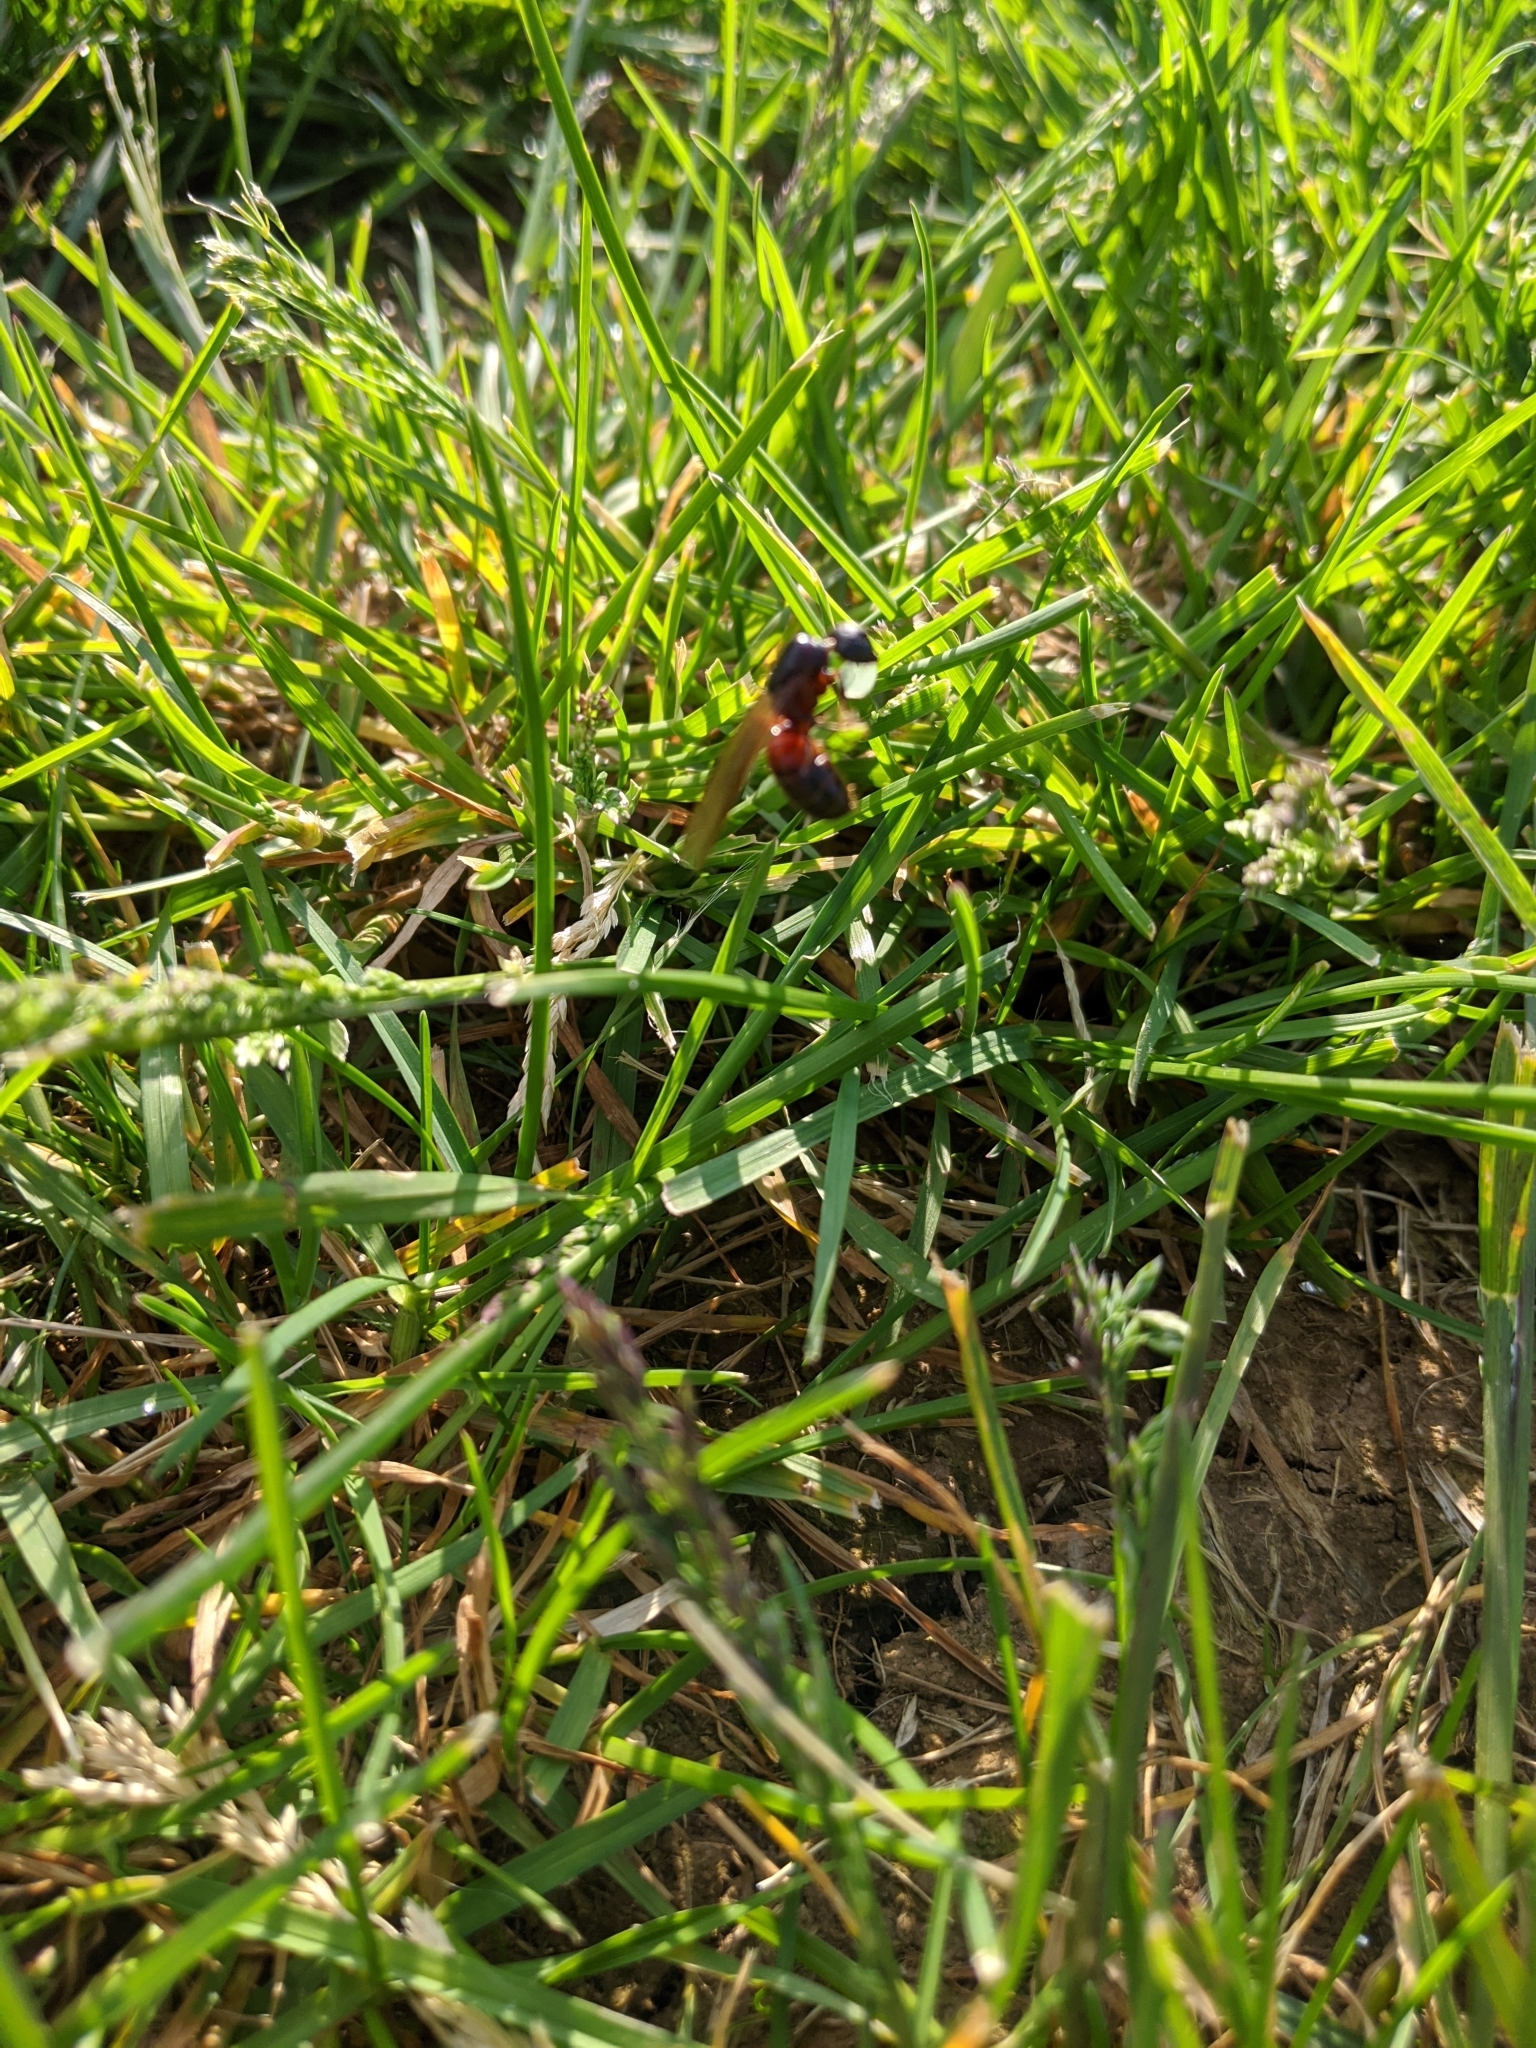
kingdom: Animalia
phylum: Arthropoda
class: Insecta
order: Hymenoptera
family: Formicidae
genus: Camponotus
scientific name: Camponotus chromaiodes
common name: Red carpenter ant
